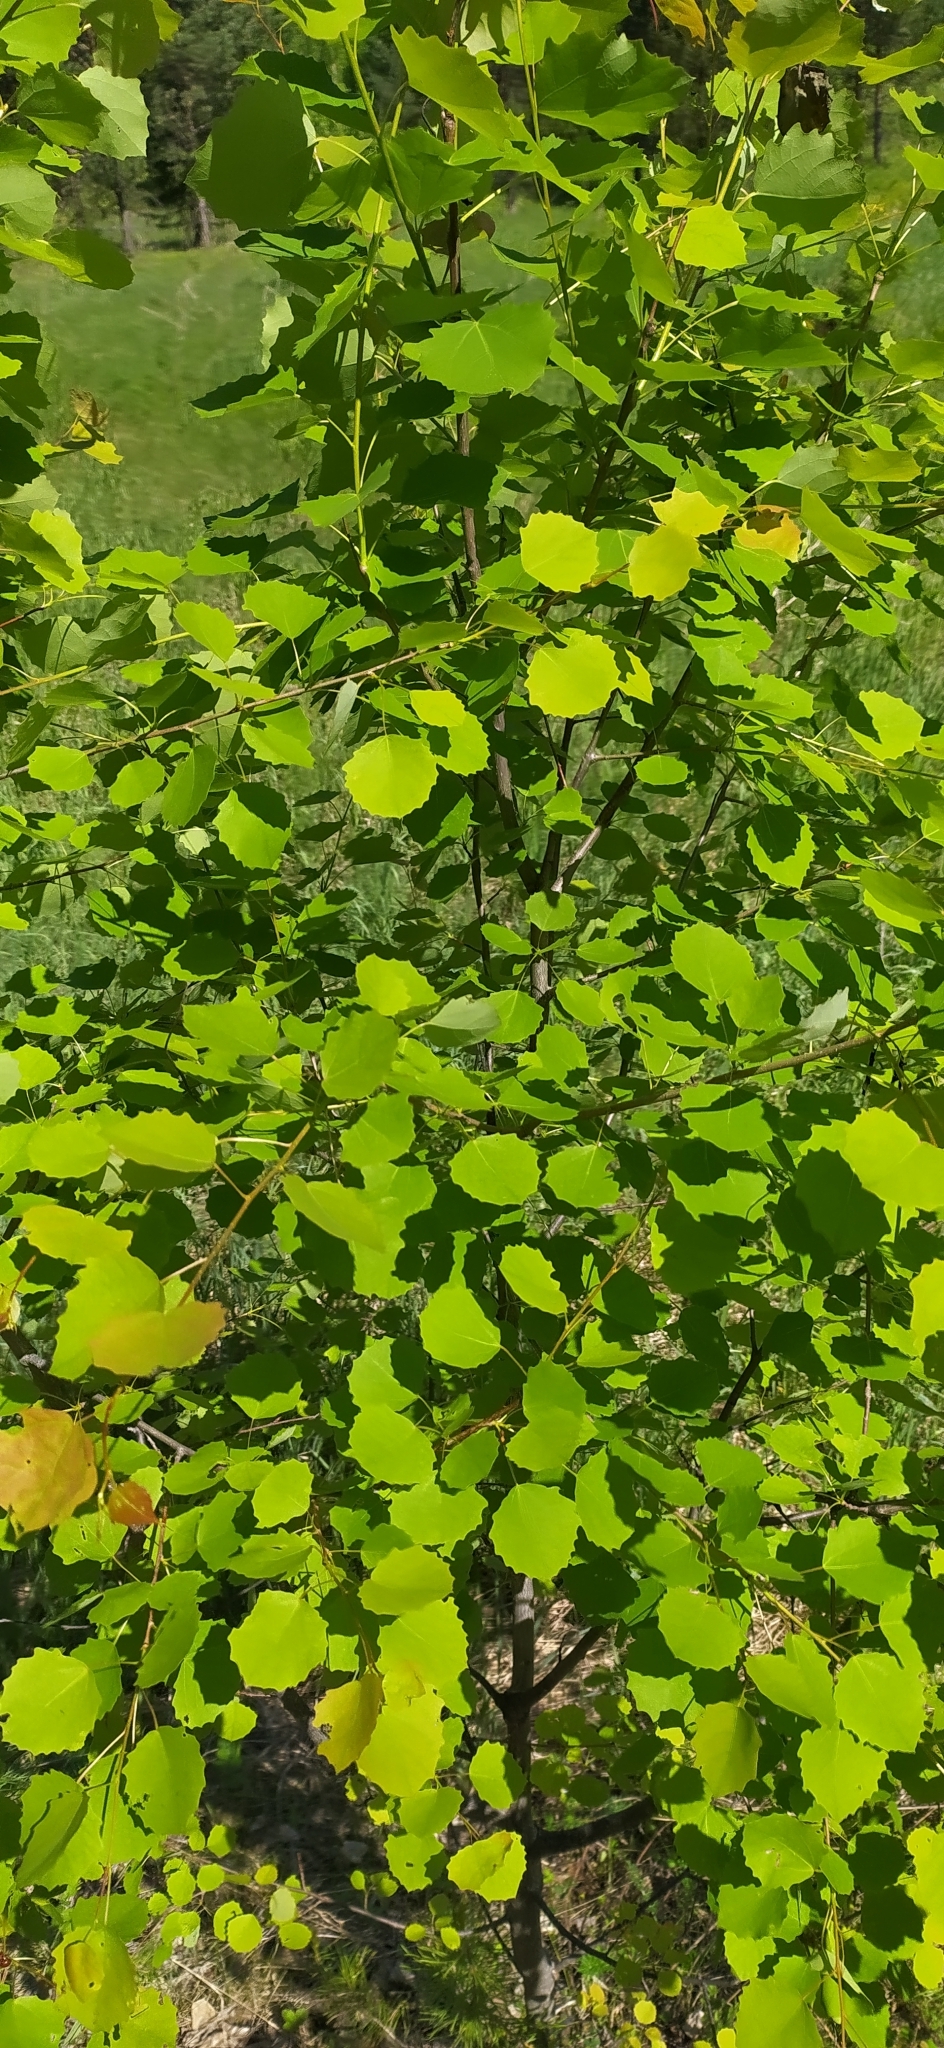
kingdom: Plantae
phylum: Tracheophyta
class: Magnoliopsida
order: Malpighiales
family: Salicaceae
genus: Populus
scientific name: Populus tremula
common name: European aspen
